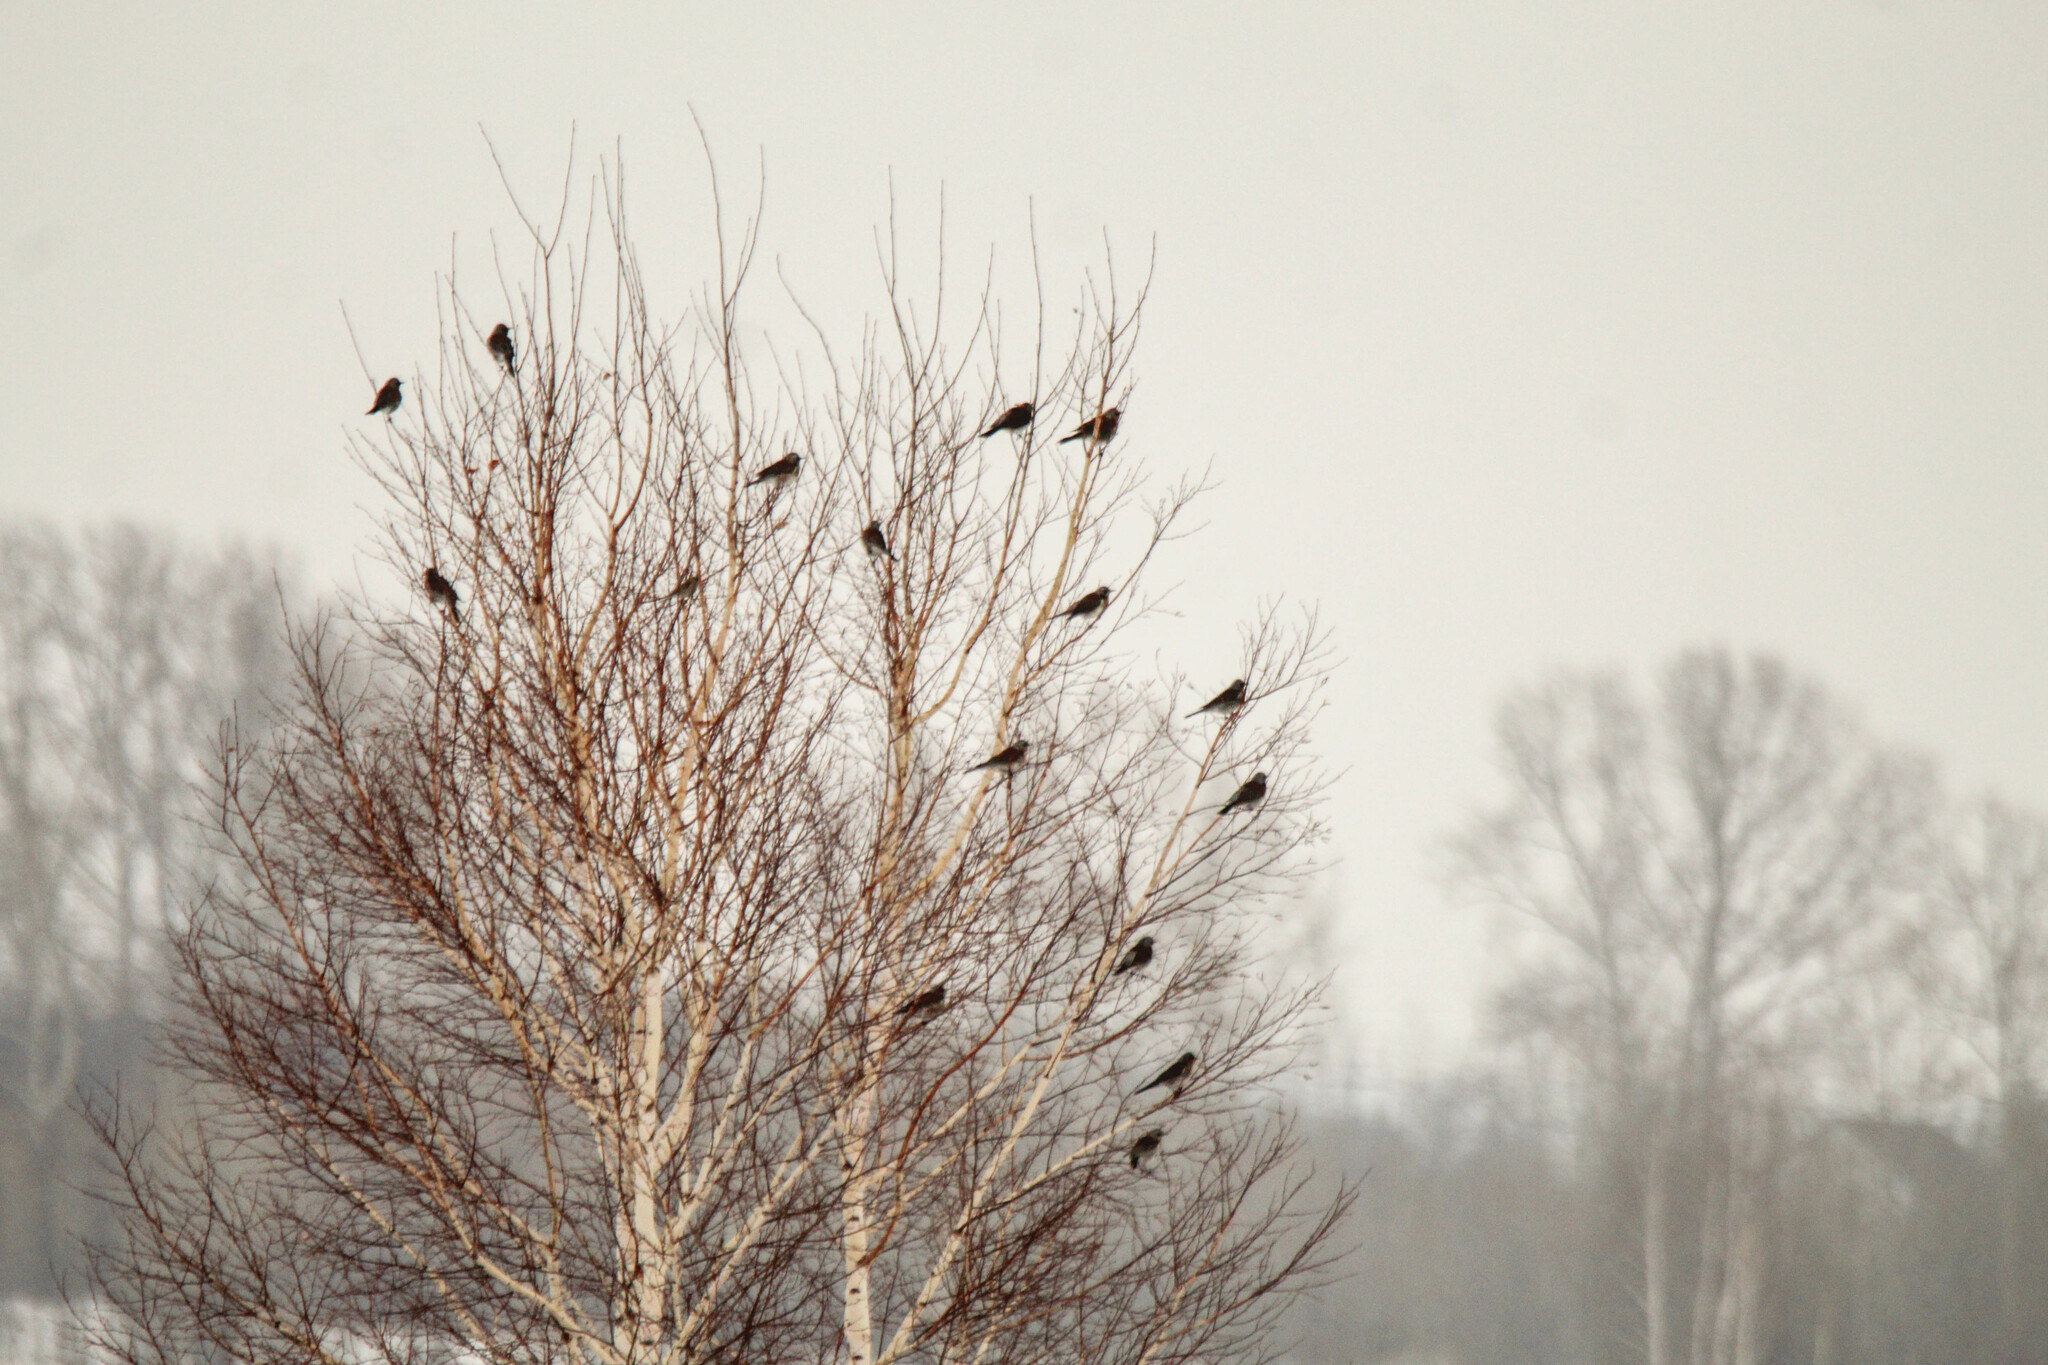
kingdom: Animalia
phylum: Chordata
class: Aves
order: Passeriformes
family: Turdidae
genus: Turdus
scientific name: Turdus pilaris
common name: Fieldfare
